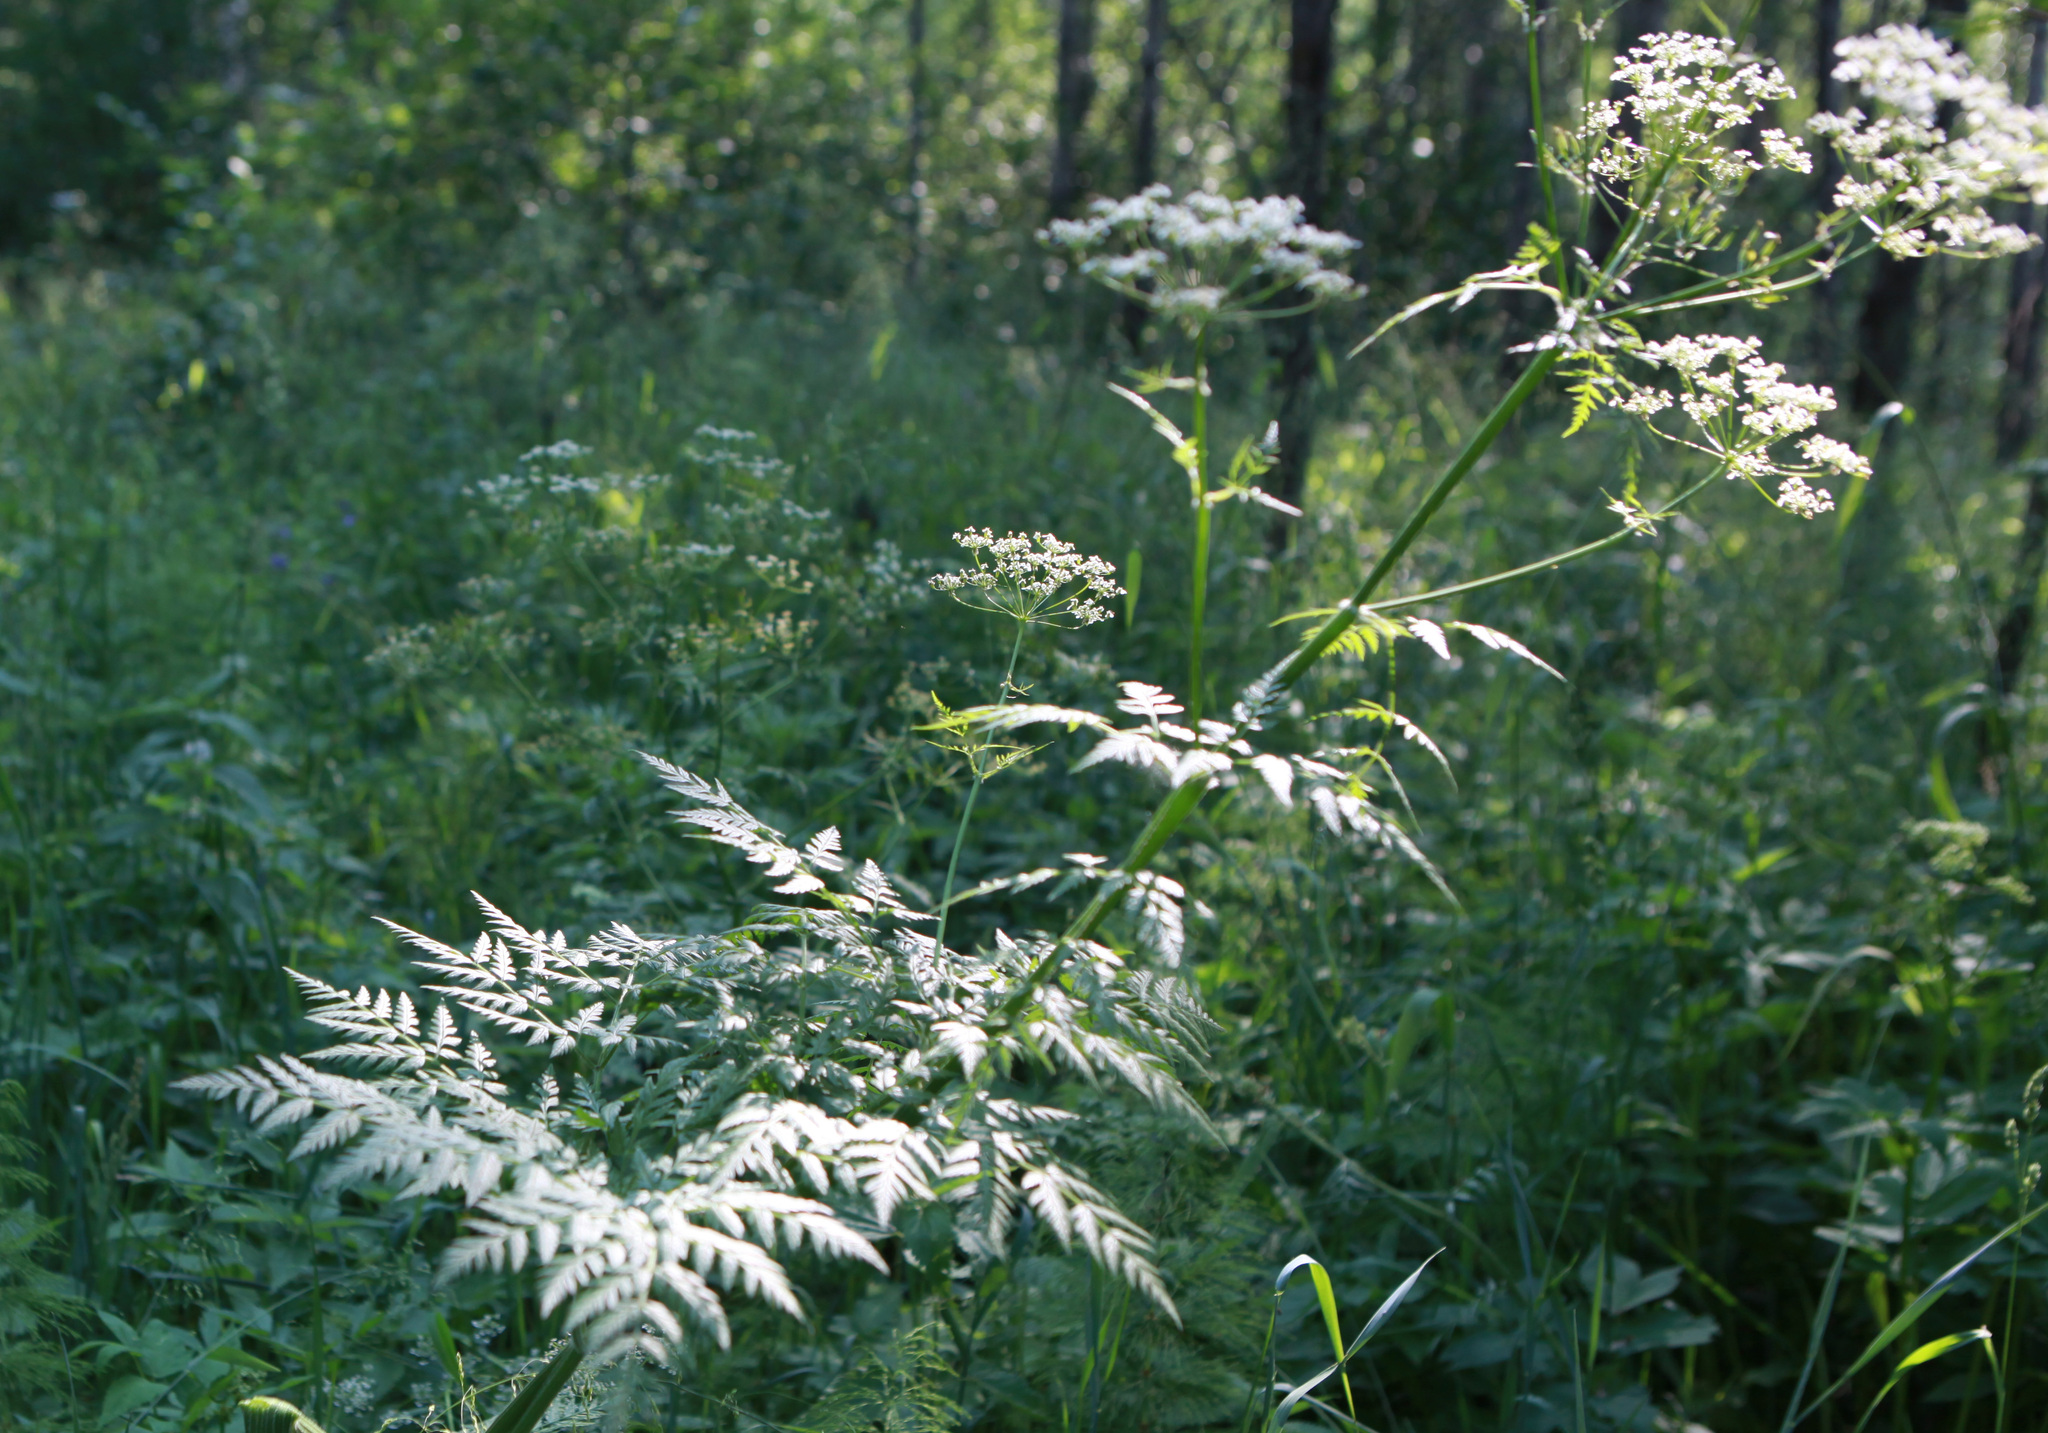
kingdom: Plantae
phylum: Tracheophyta
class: Magnoliopsida
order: Apiales
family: Apiaceae
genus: Anthriscus
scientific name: Anthriscus sylvestris
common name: Cow parsley
